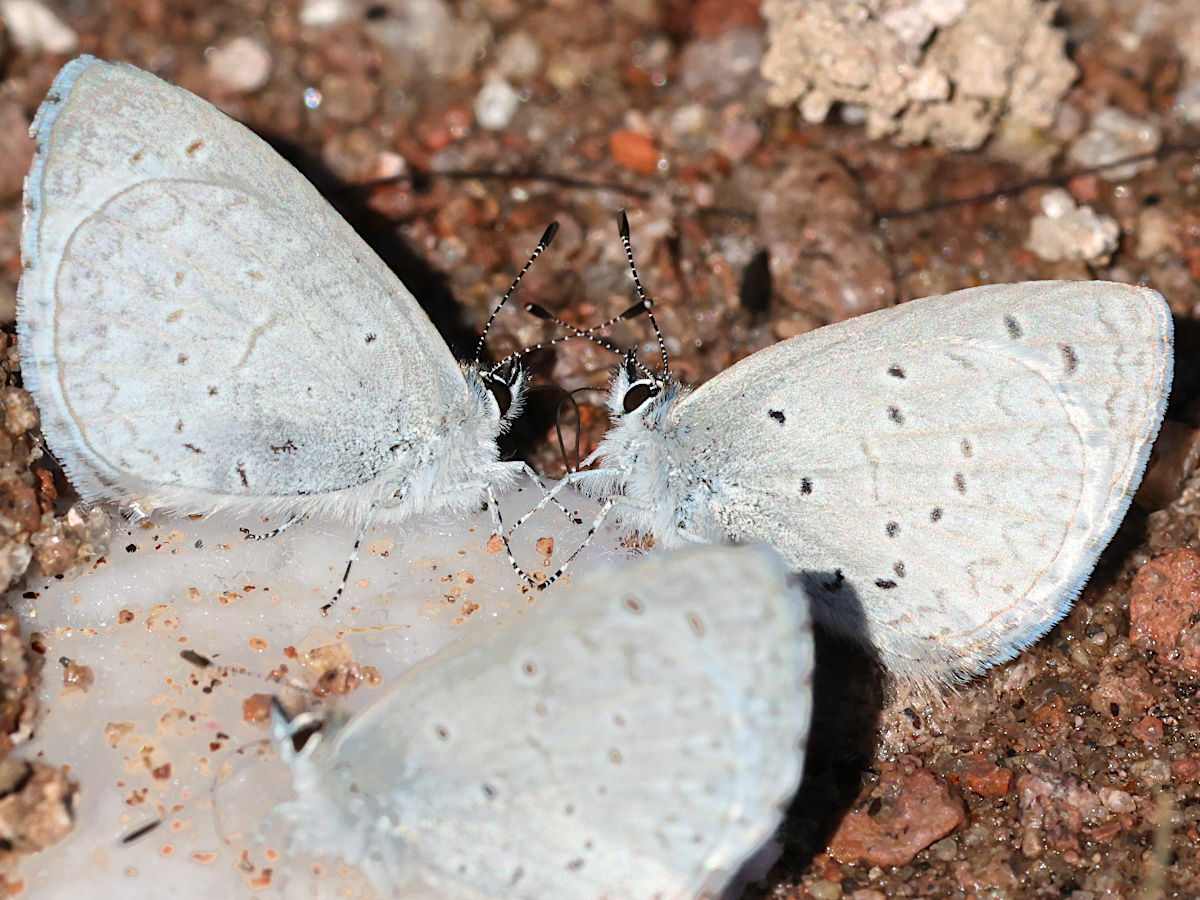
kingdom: Animalia
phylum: Arthropoda
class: Insecta
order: Lepidoptera
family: Lycaenidae
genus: Celastrina
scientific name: Celastrina ladon
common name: Spring azure
